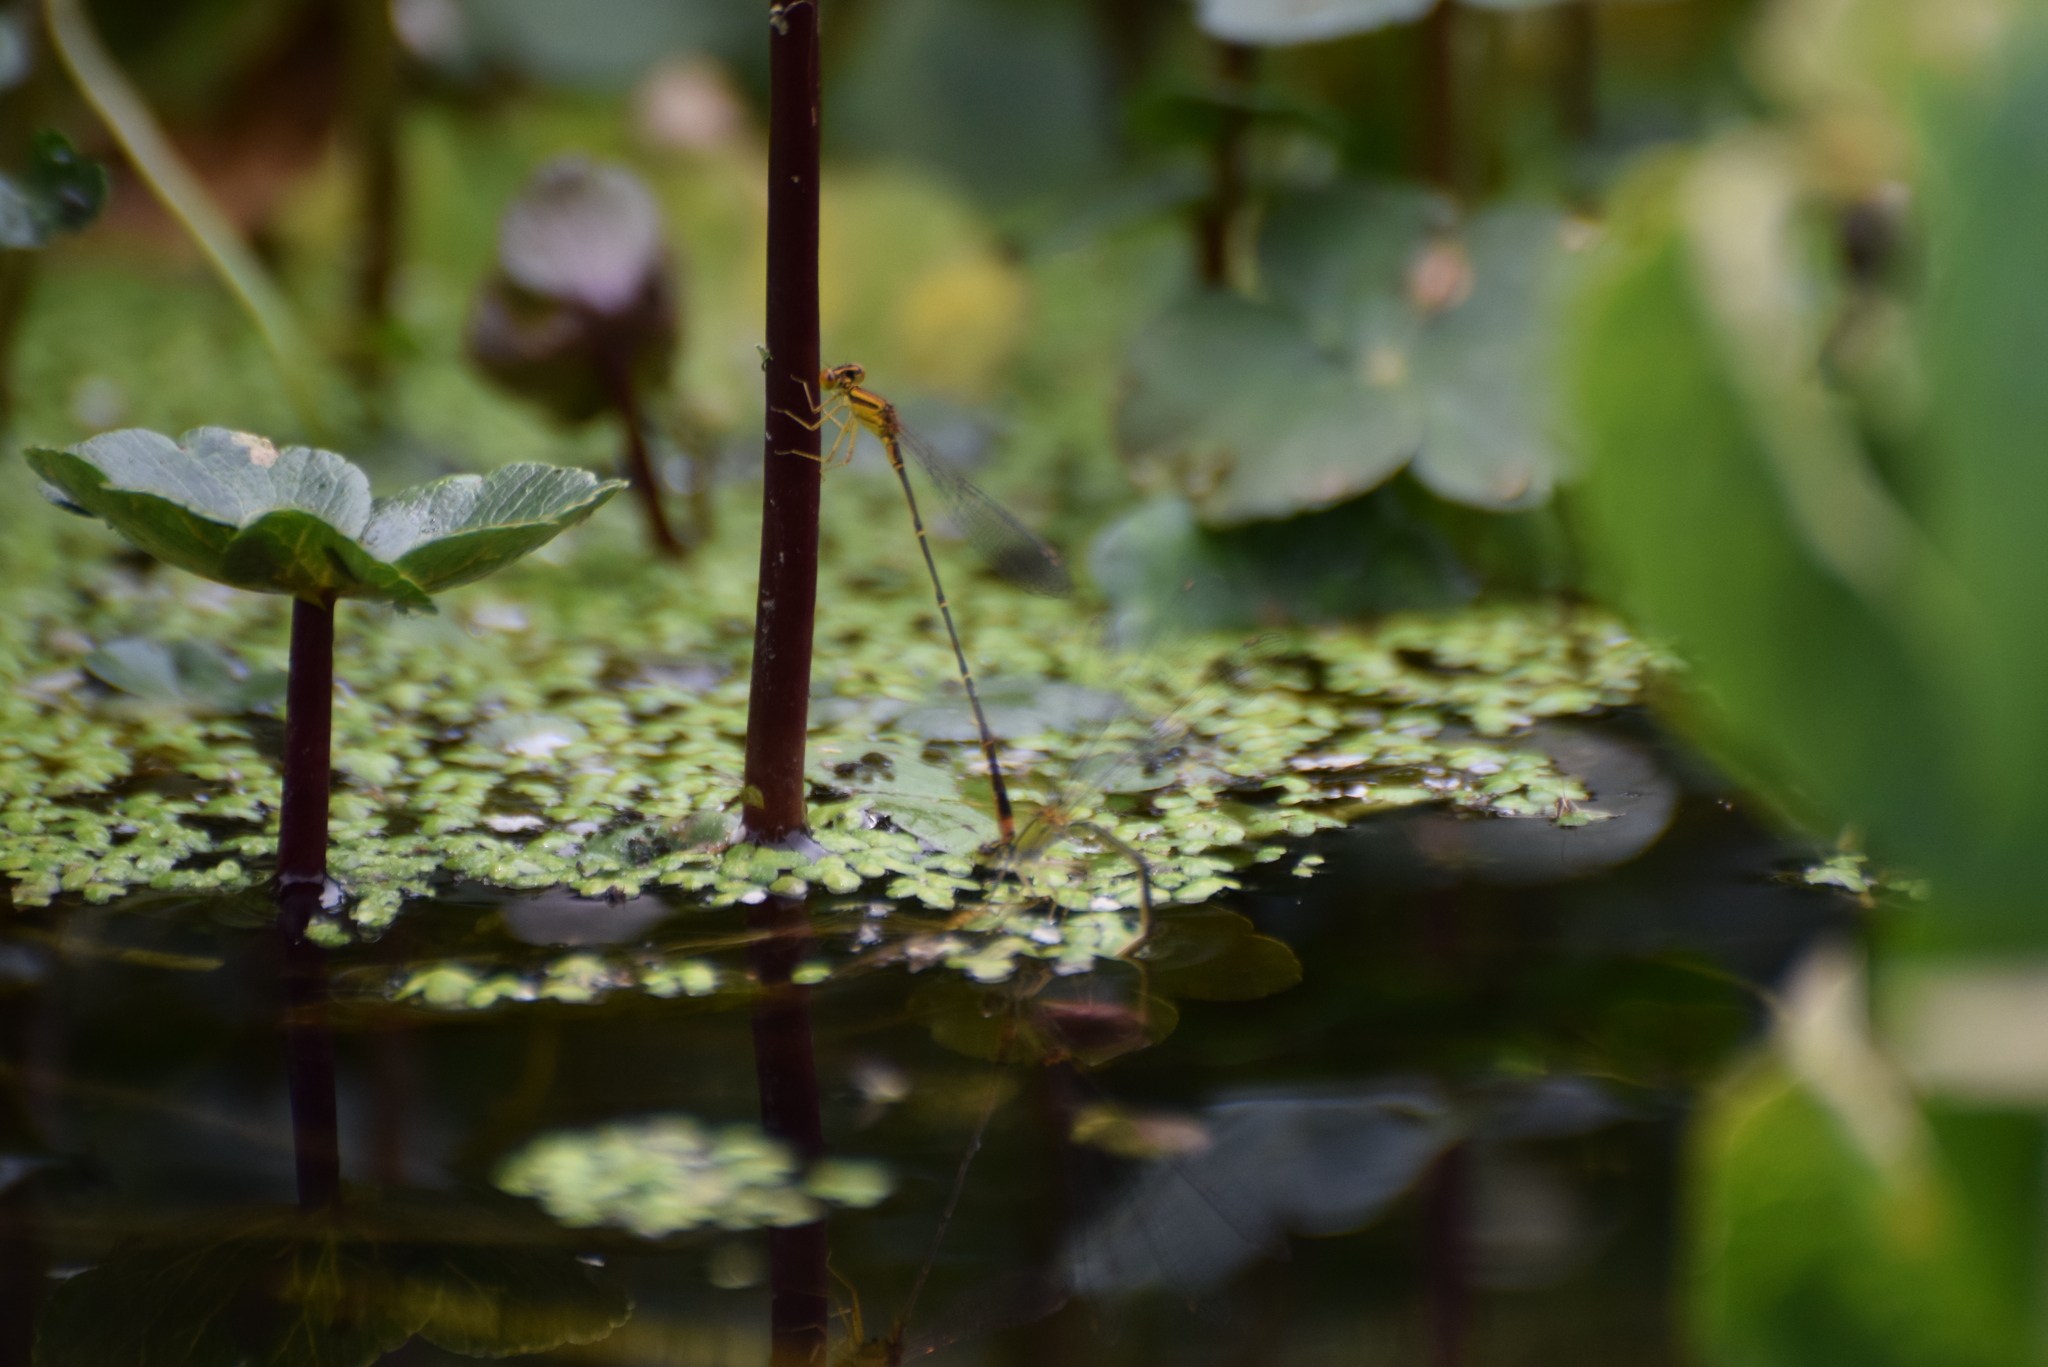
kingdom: Animalia
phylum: Arthropoda
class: Insecta
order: Odonata
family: Coenagrionidae
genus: Enallagma
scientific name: Enallagma signatum
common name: Orange bluet
